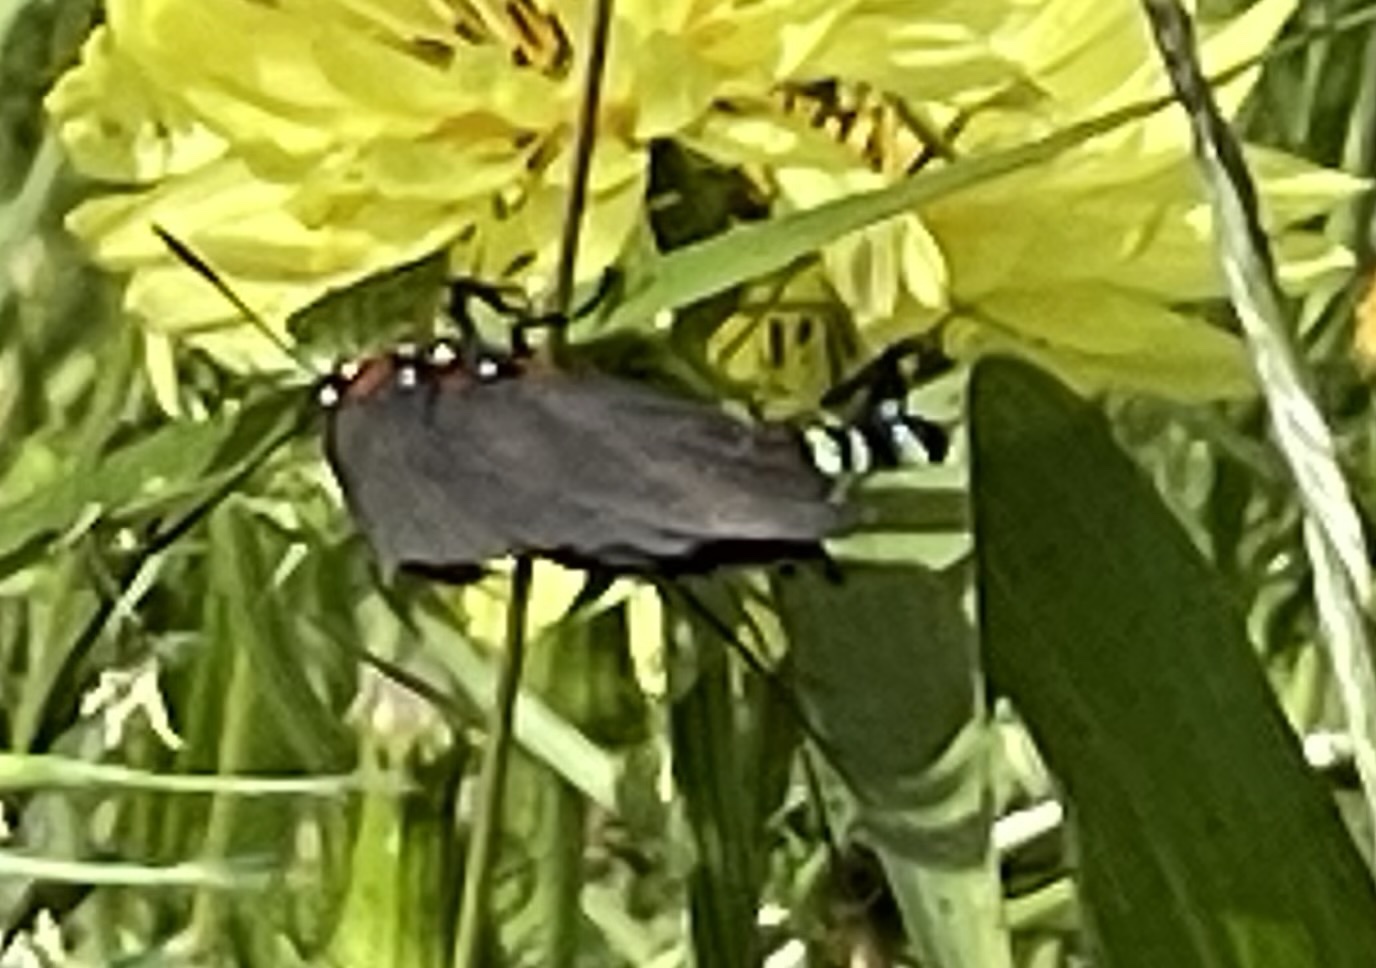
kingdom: Animalia
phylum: Arthropoda
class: Insecta
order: Lepidoptera
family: Lycaenidae
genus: Atlides
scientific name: Atlides halesus
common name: Great purple hairstreak
